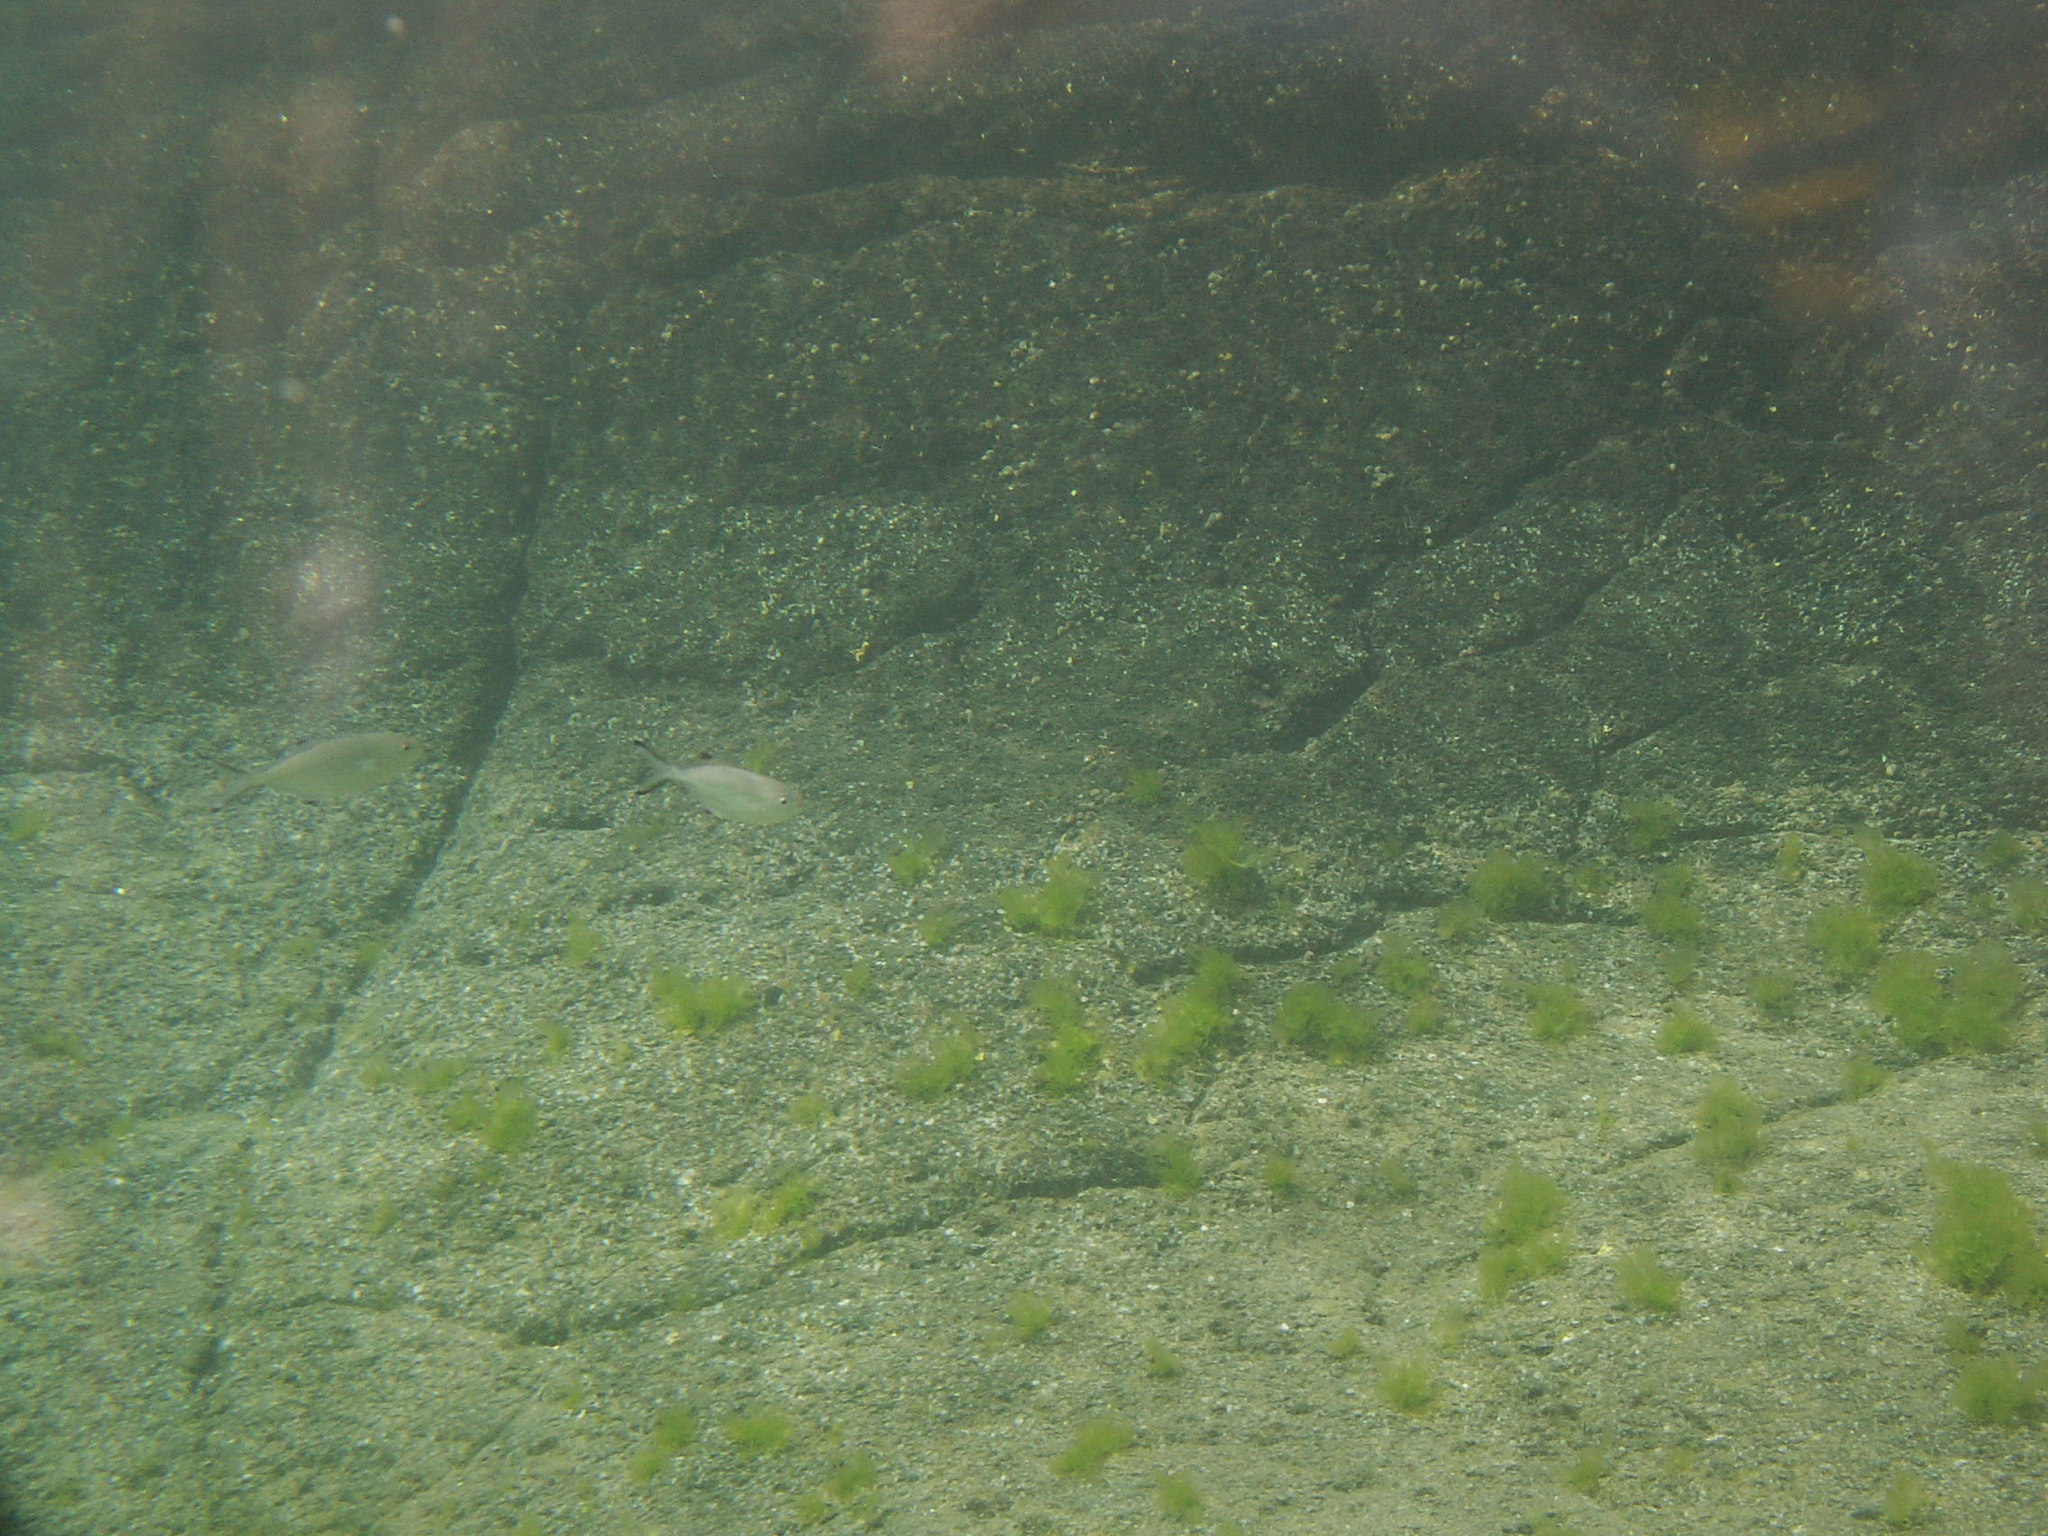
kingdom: Animalia
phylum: Chordata
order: Perciformes
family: Carangidae
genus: Trachinotus
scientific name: Trachinotus ovatus
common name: Pompano
